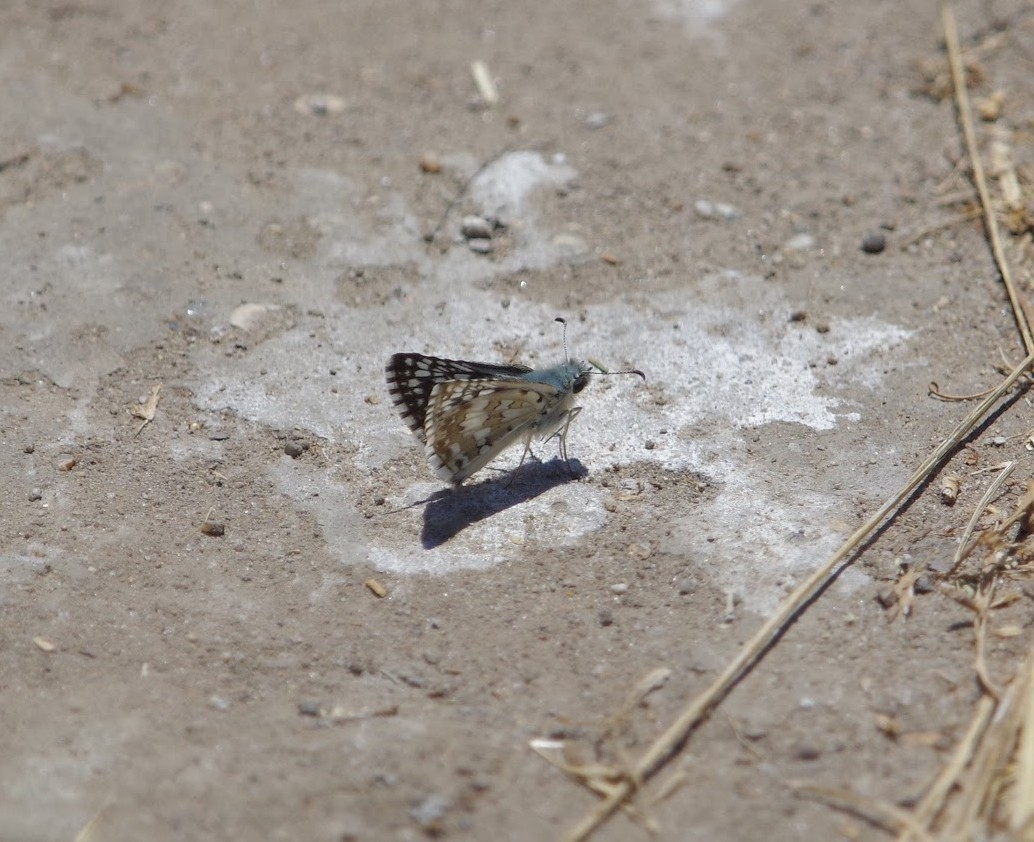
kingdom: Animalia
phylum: Arthropoda
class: Insecta
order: Lepidoptera
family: Hesperiidae
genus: Burnsius
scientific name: Burnsius communis
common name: Common checkered-skipper
